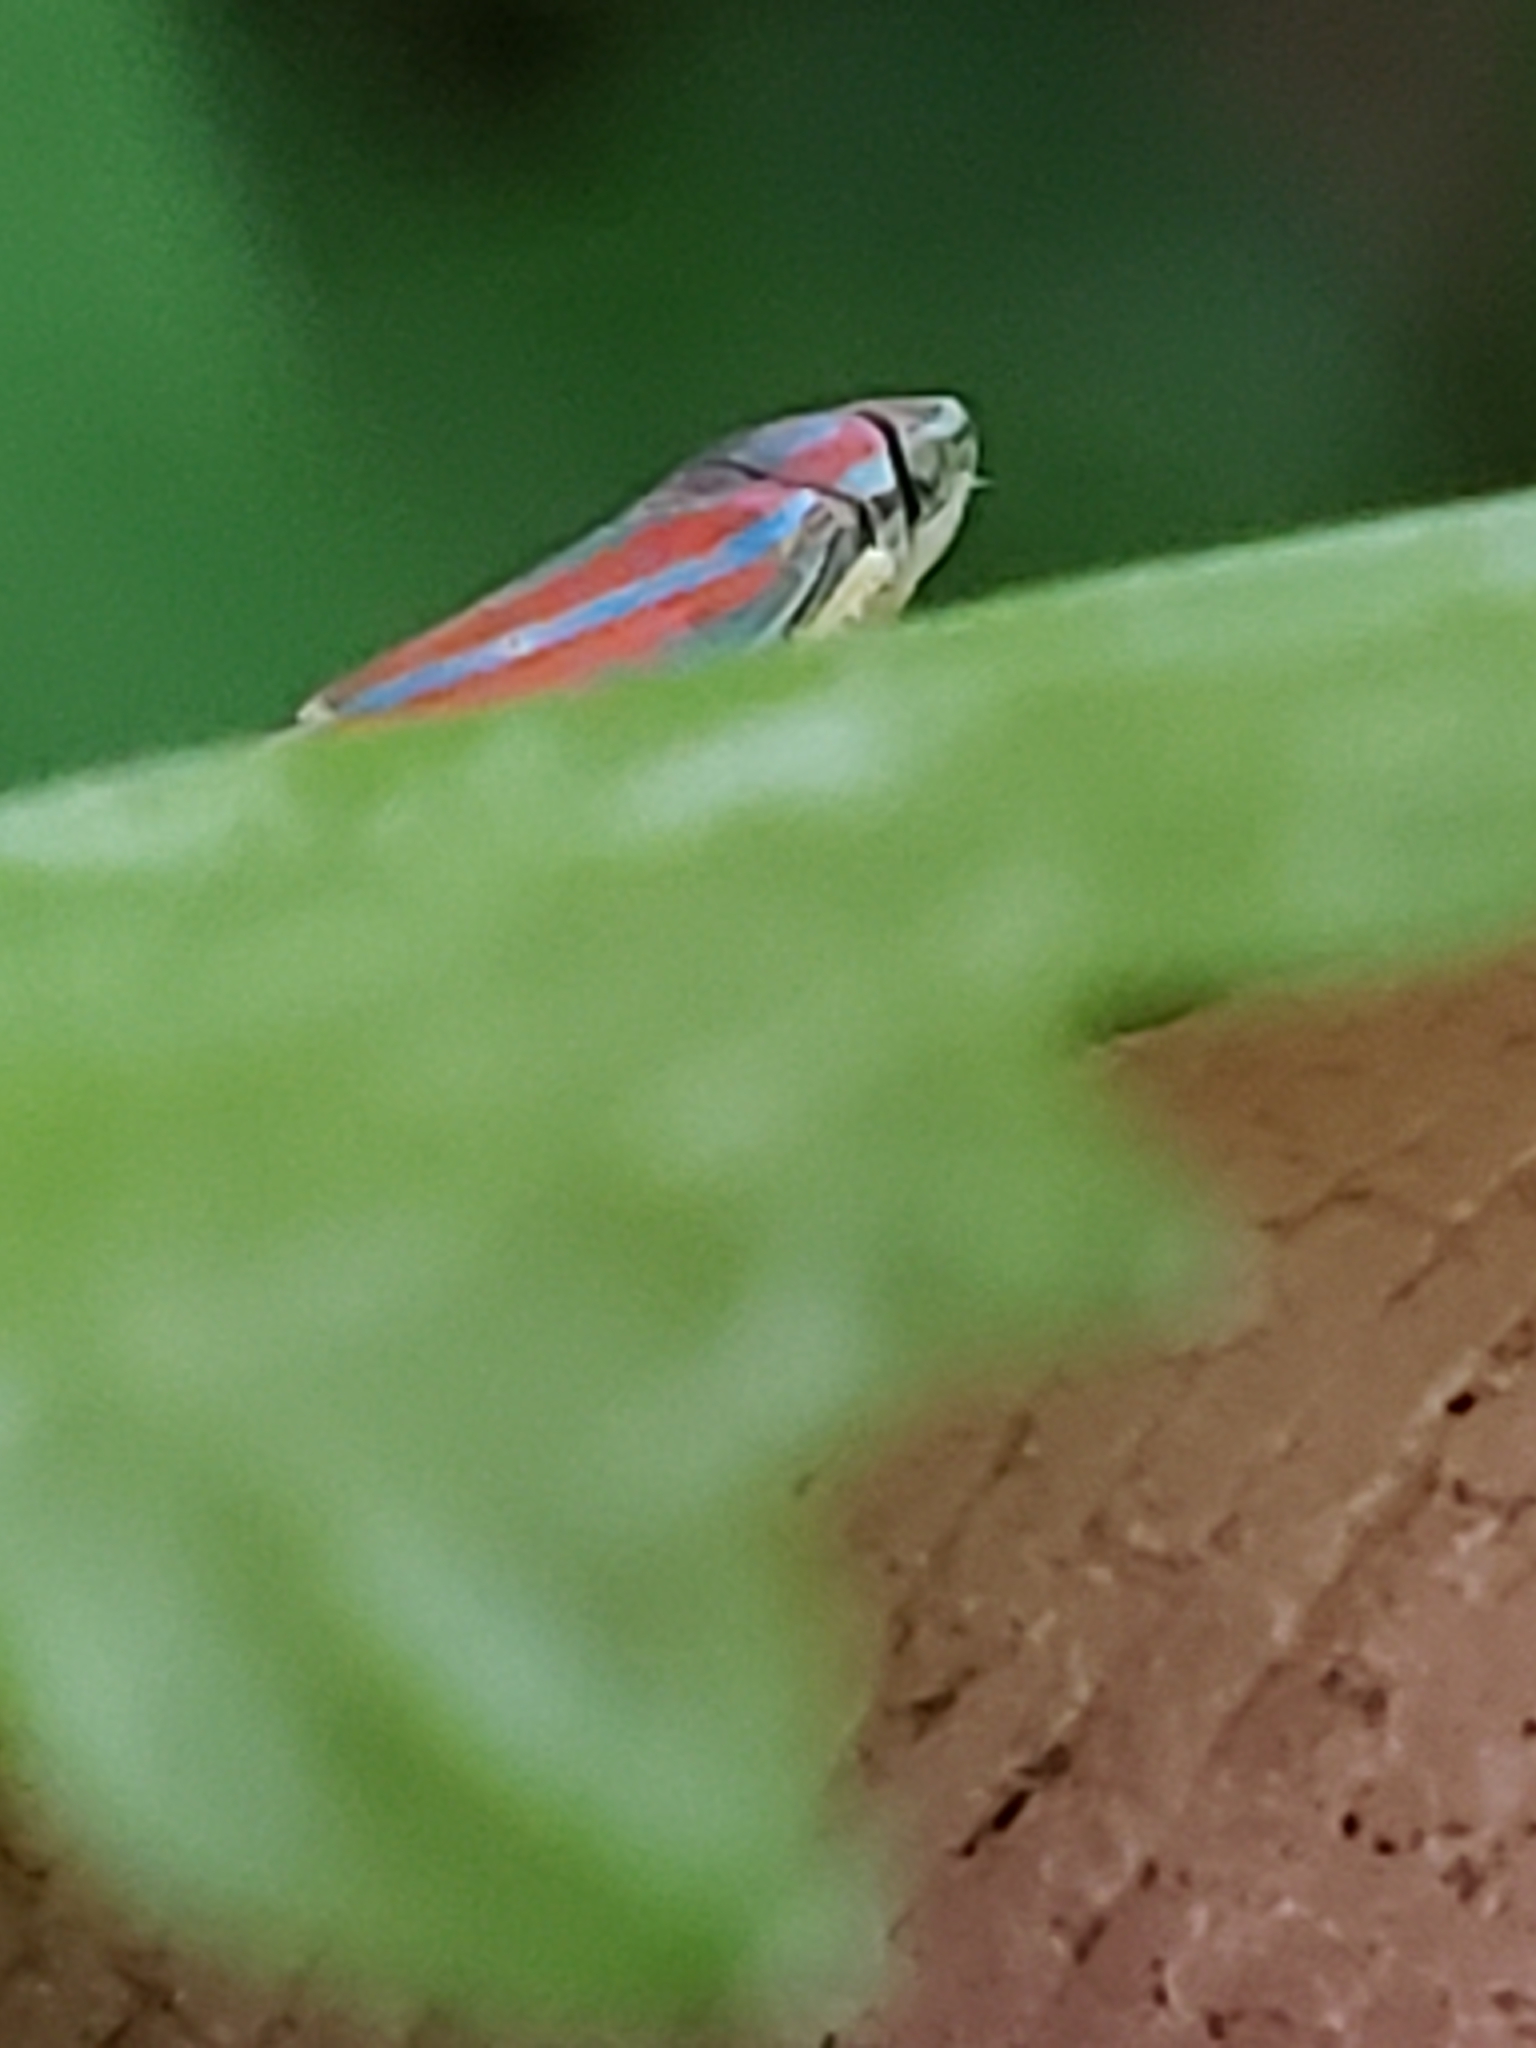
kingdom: Animalia
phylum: Arthropoda
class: Insecta
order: Hemiptera
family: Cicadellidae
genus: Graphocephala
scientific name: Graphocephala versuta
